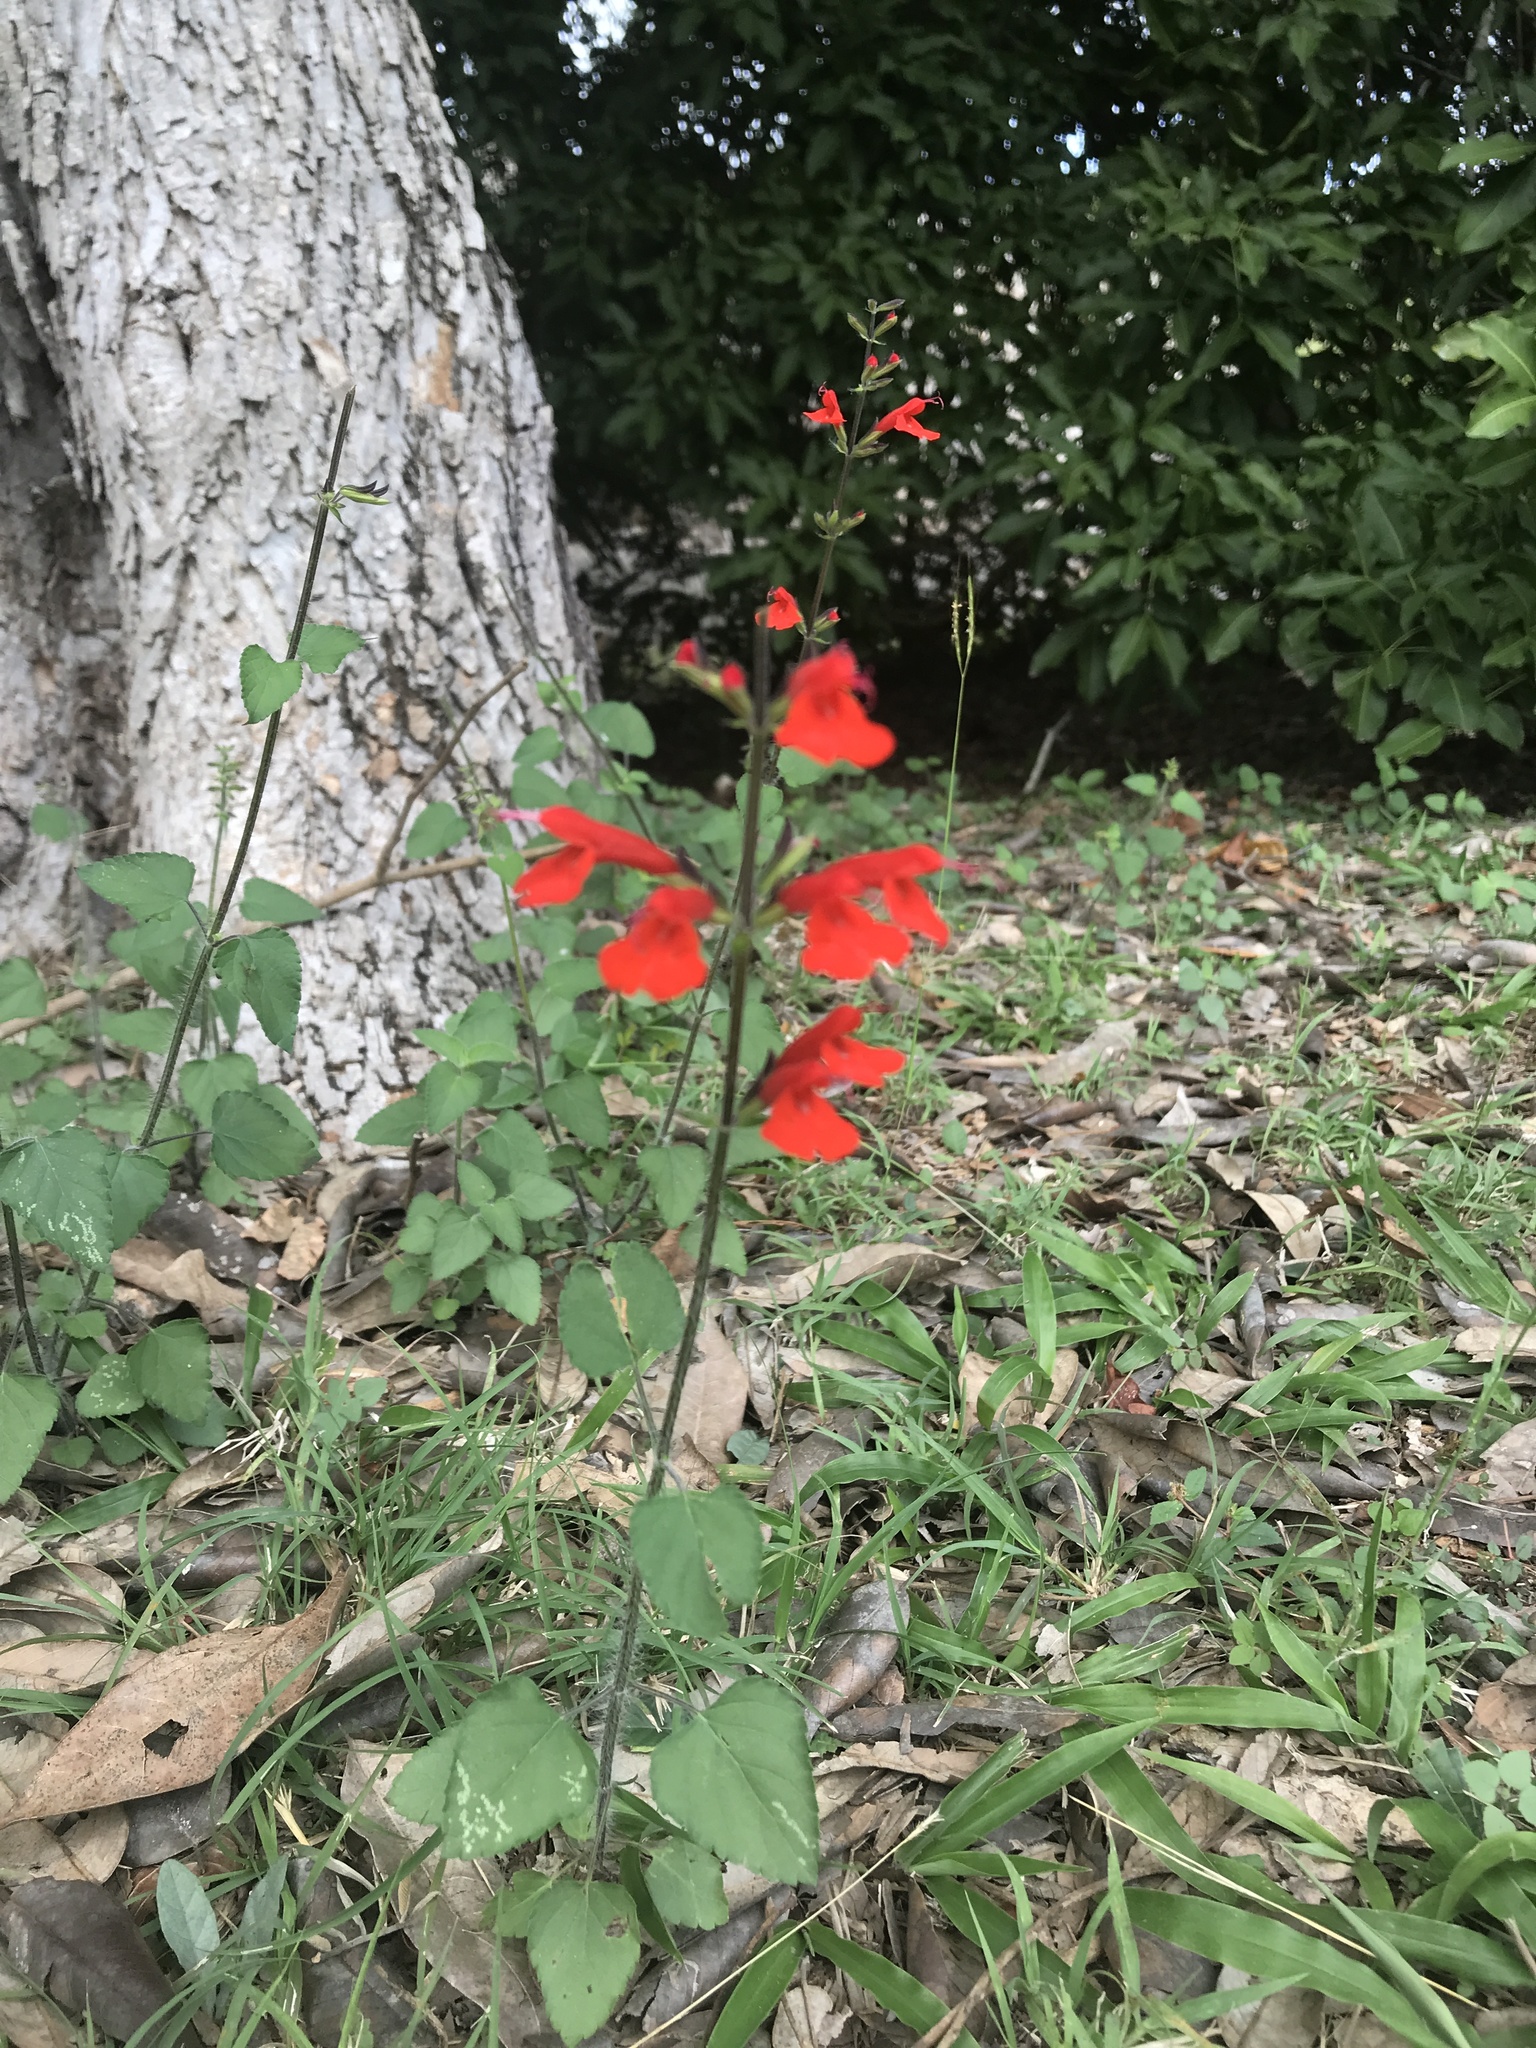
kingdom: Plantae
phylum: Tracheophyta
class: Magnoliopsida
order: Lamiales
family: Lamiaceae
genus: Salvia
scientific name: Salvia coccinea
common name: Blood sage
